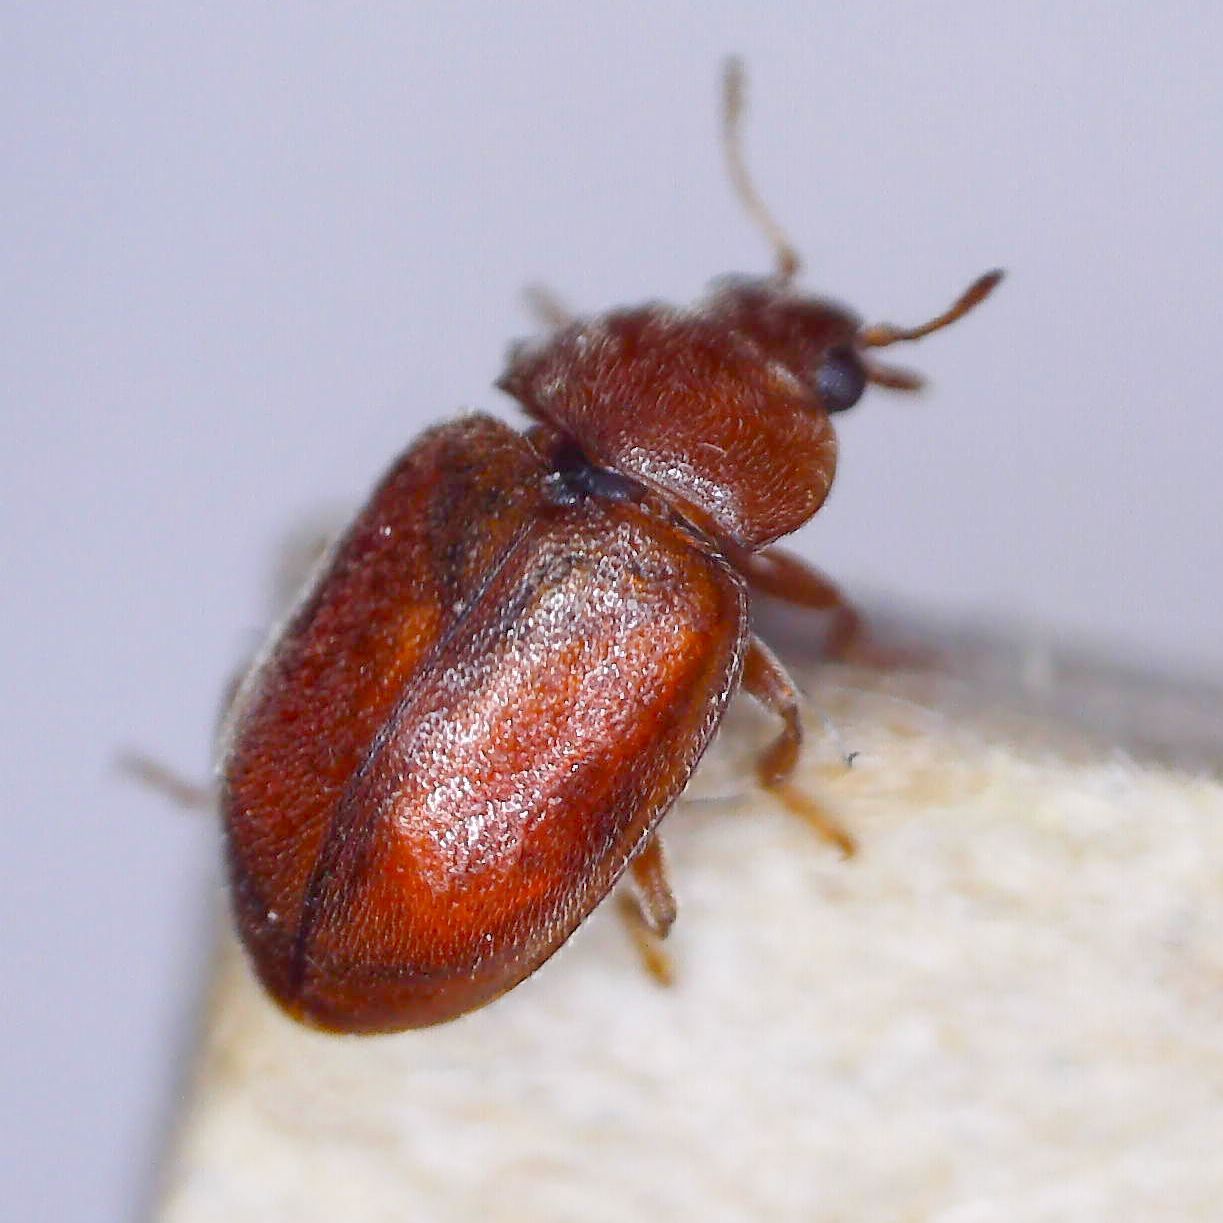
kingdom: Animalia
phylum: Arthropoda
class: Insecta
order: Coleoptera
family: Coccinellidae
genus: Coccidula
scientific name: Coccidula rufa
